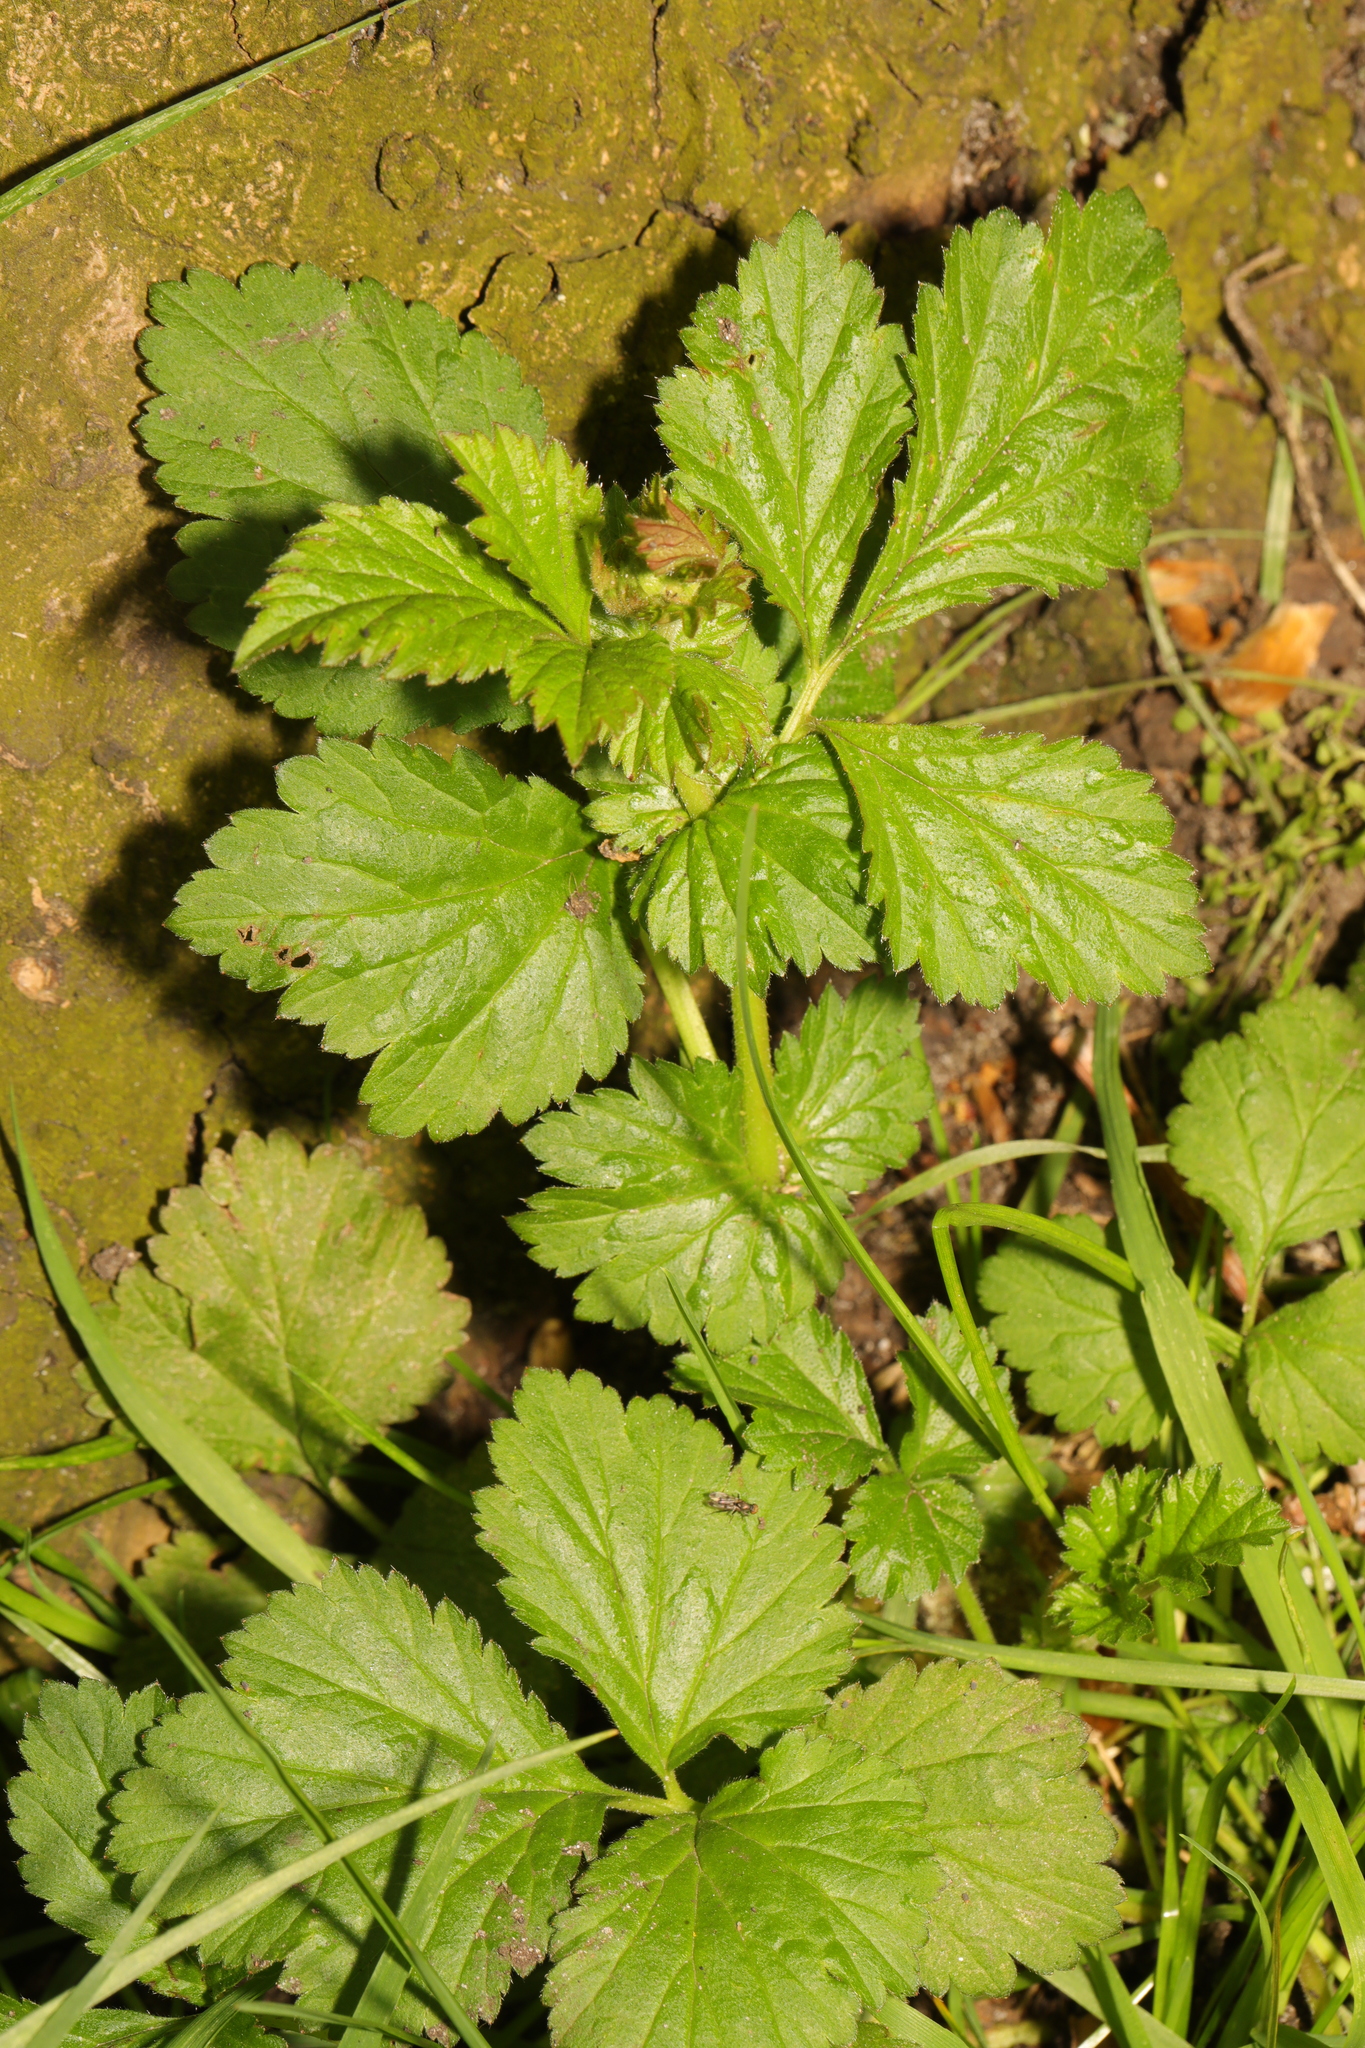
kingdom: Plantae
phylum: Tracheophyta
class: Magnoliopsida
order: Rosales
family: Rosaceae
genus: Geum
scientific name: Geum urbanum
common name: Wood avens
